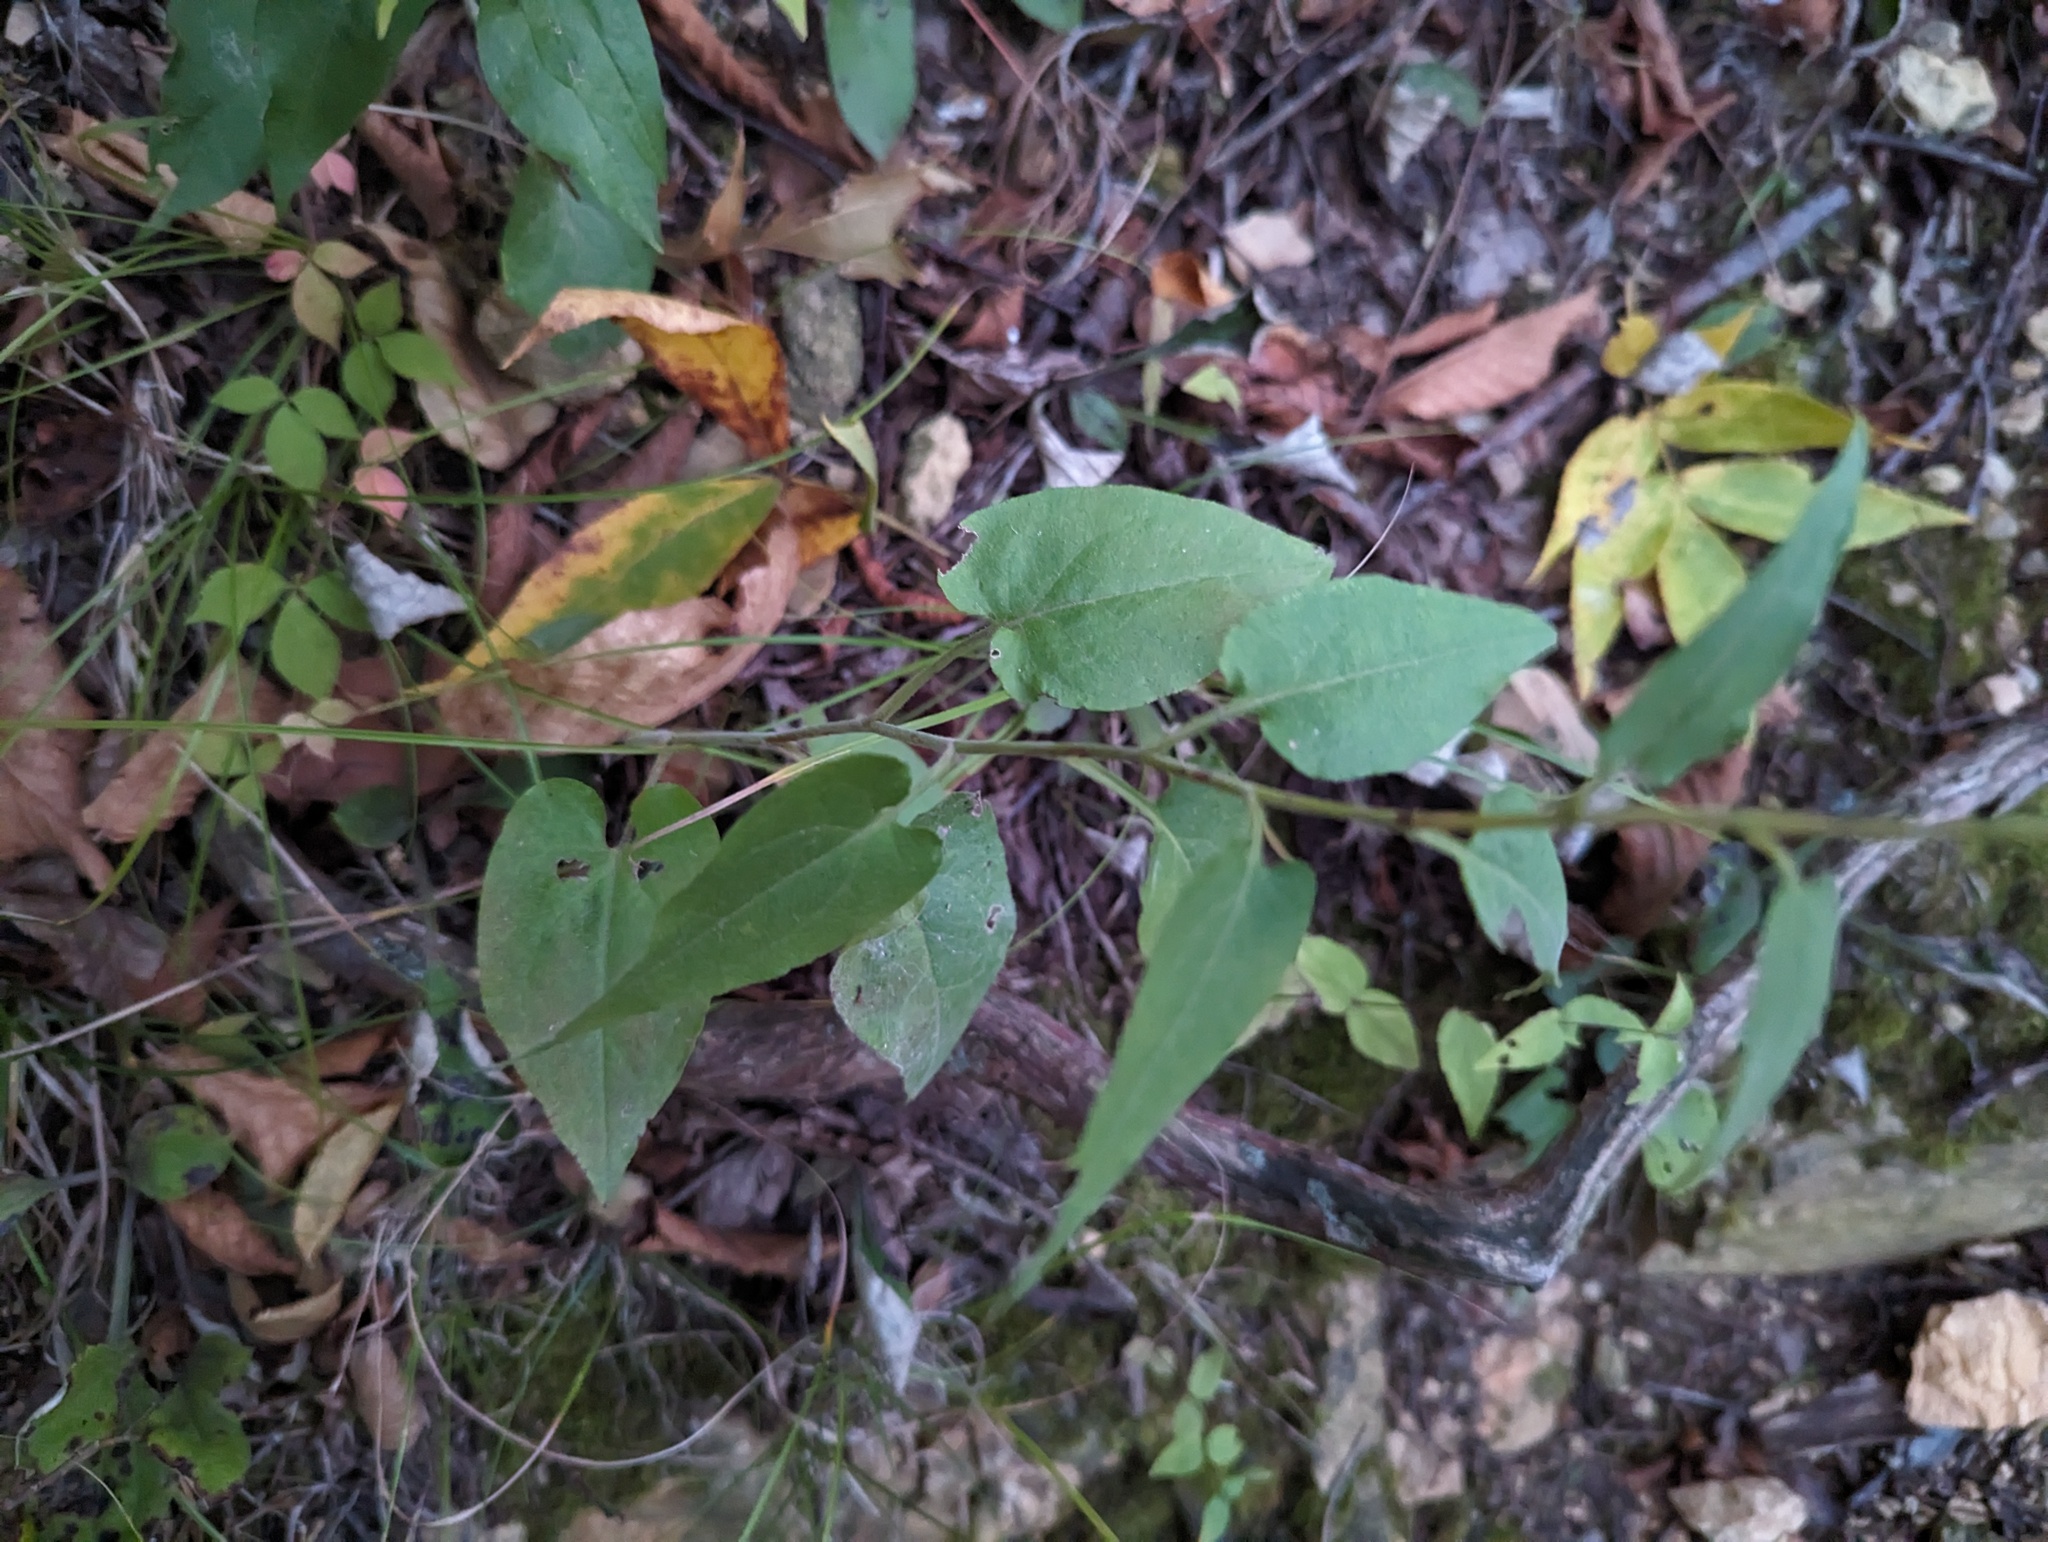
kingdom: Plantae
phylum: Tracheophyta
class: Magnoliopsida
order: Asterales
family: Asteraceae
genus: Symphyotrichum
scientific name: Symphyotrichum anomalum
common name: Many-ray aster
